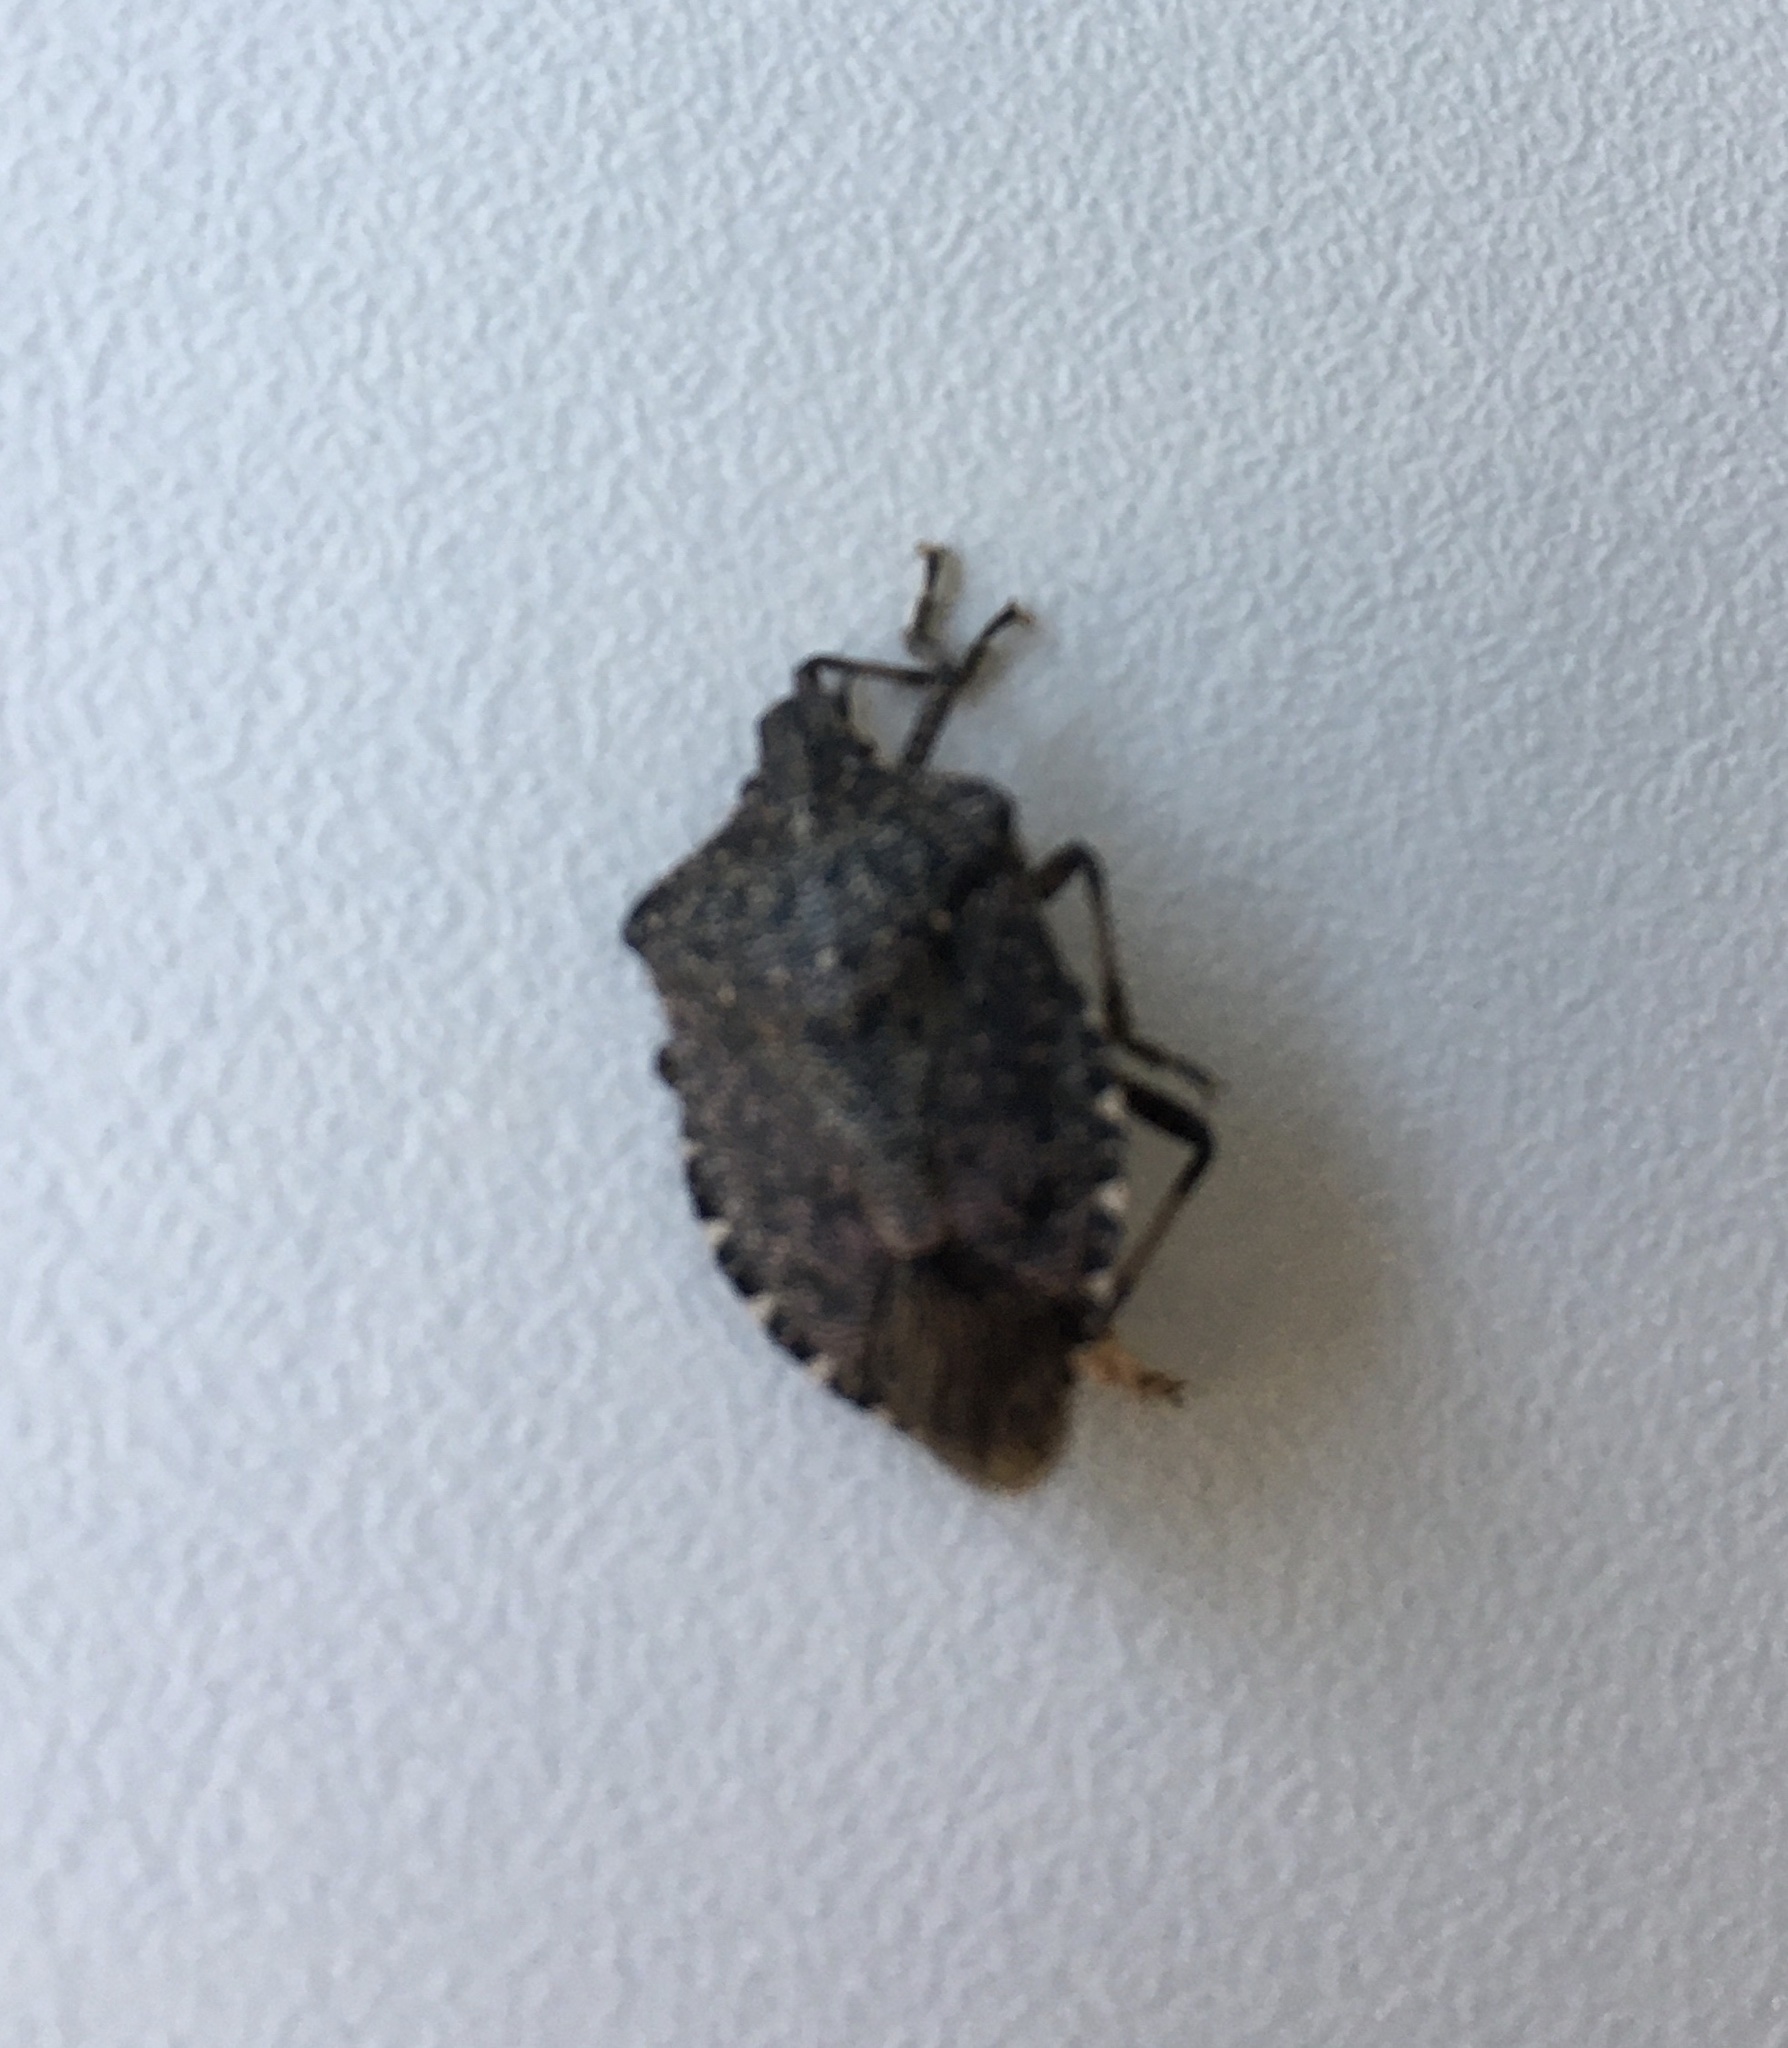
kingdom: Animalia
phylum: Arthropoda
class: Insecta
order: Hemiptera
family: Pentatomidae
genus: Halyomorpha
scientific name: Halyomorpha halys
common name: Brown marmorated stink bug
